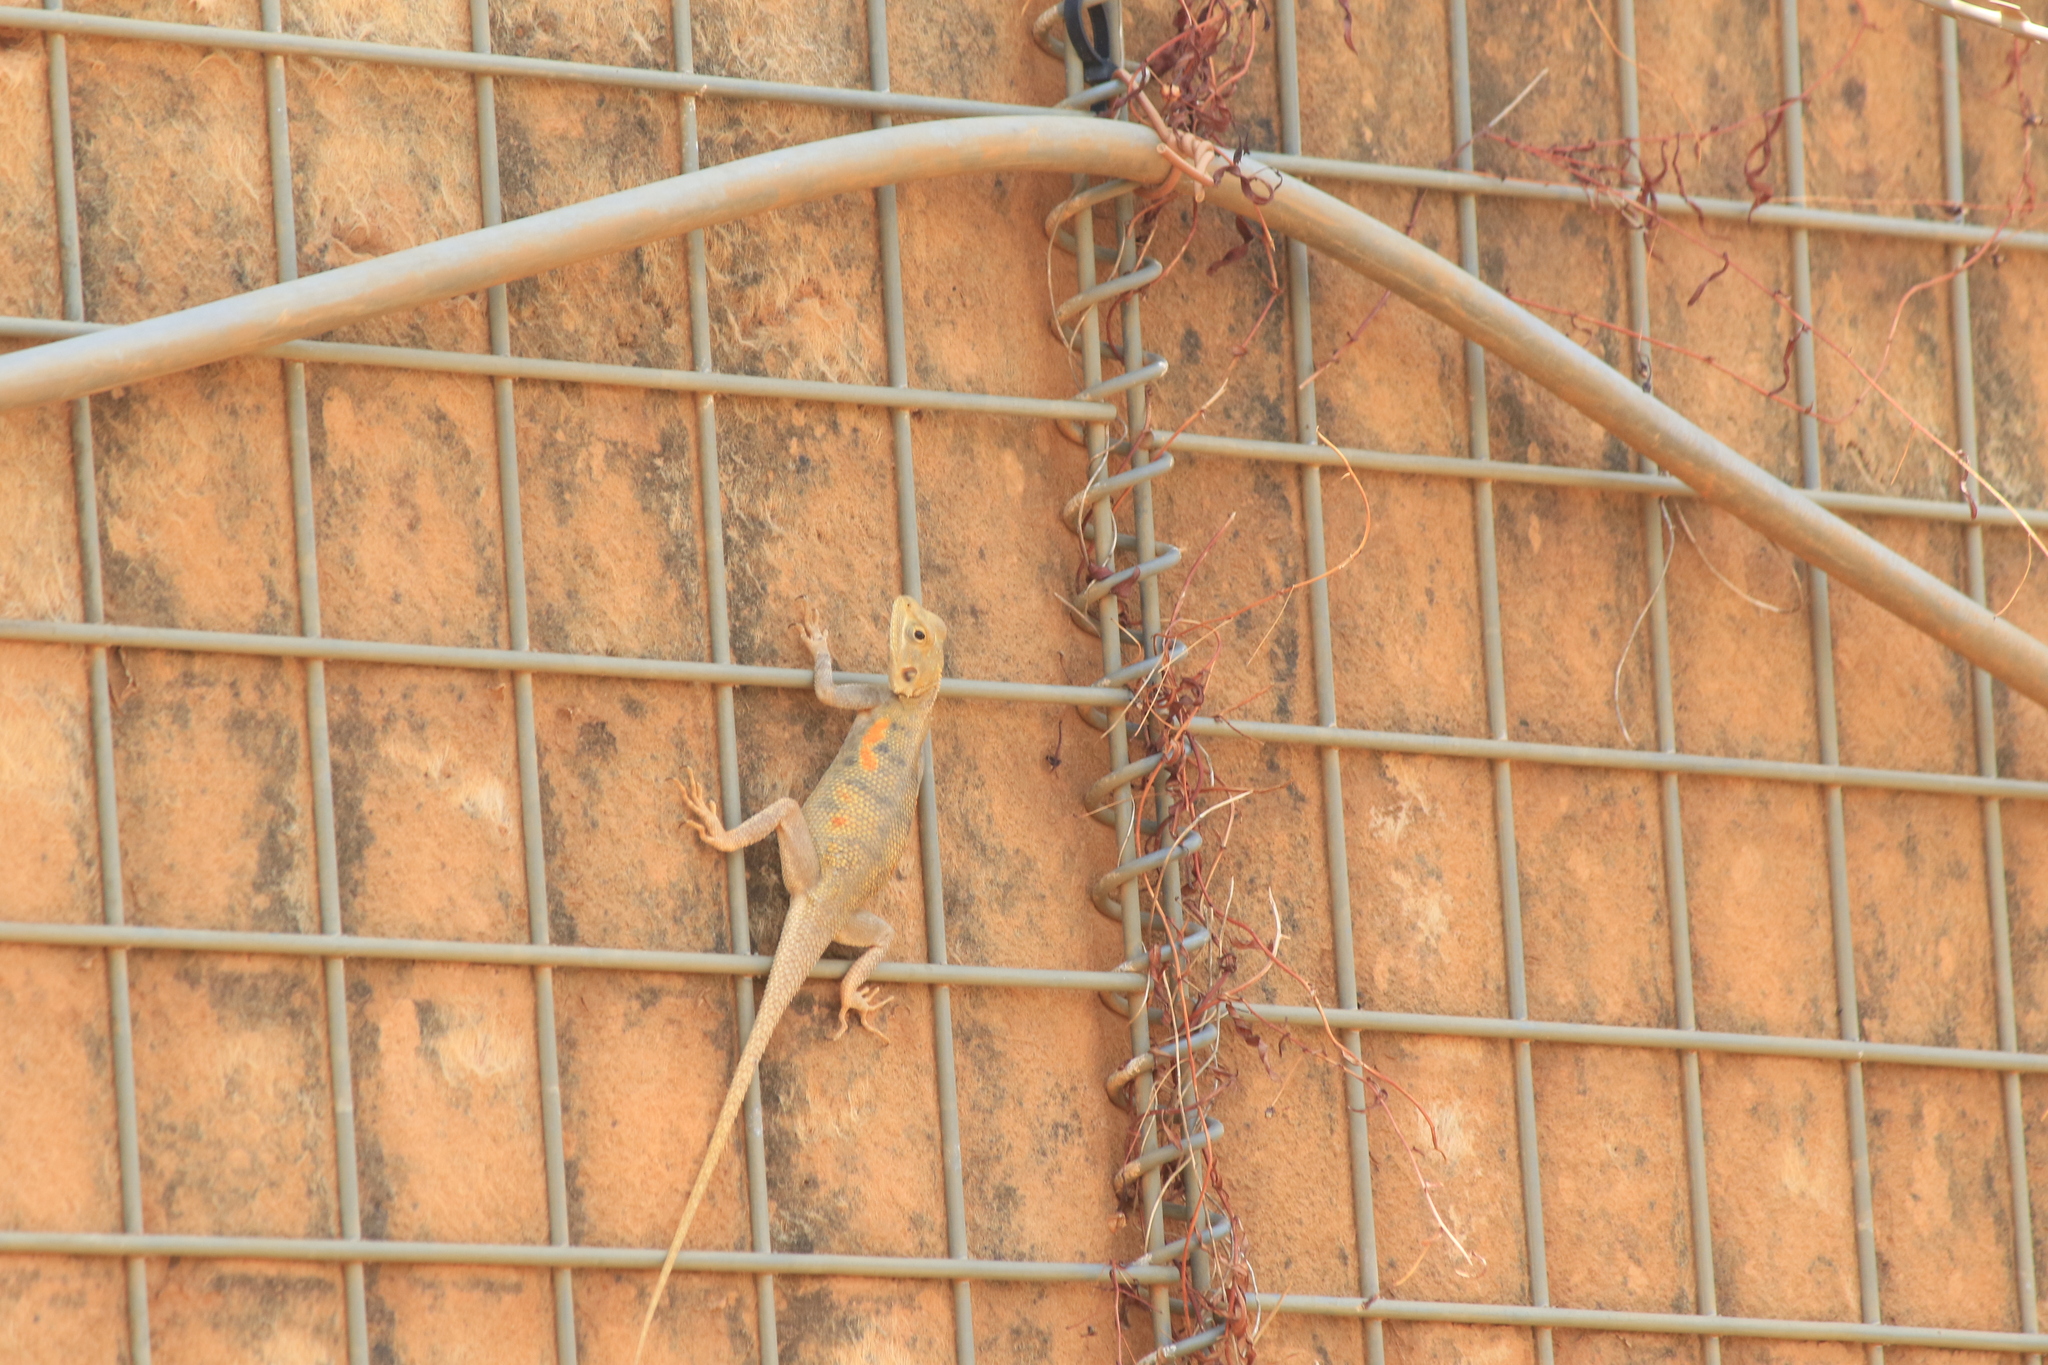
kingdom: Animalia
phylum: Chordata
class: Squamata
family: Agamidae
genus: Agama
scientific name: Agama paragama
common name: False agama
